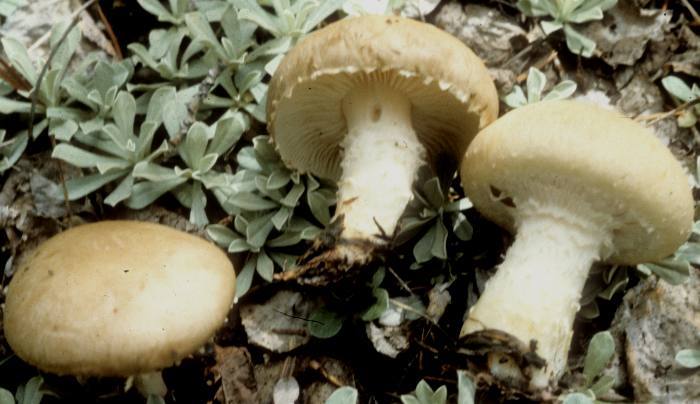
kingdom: Fungi
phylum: Basidiomycota
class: Agaricomycetes
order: Agaricales
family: Agaricaceae
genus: Floccularia
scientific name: Floccularia fusca
